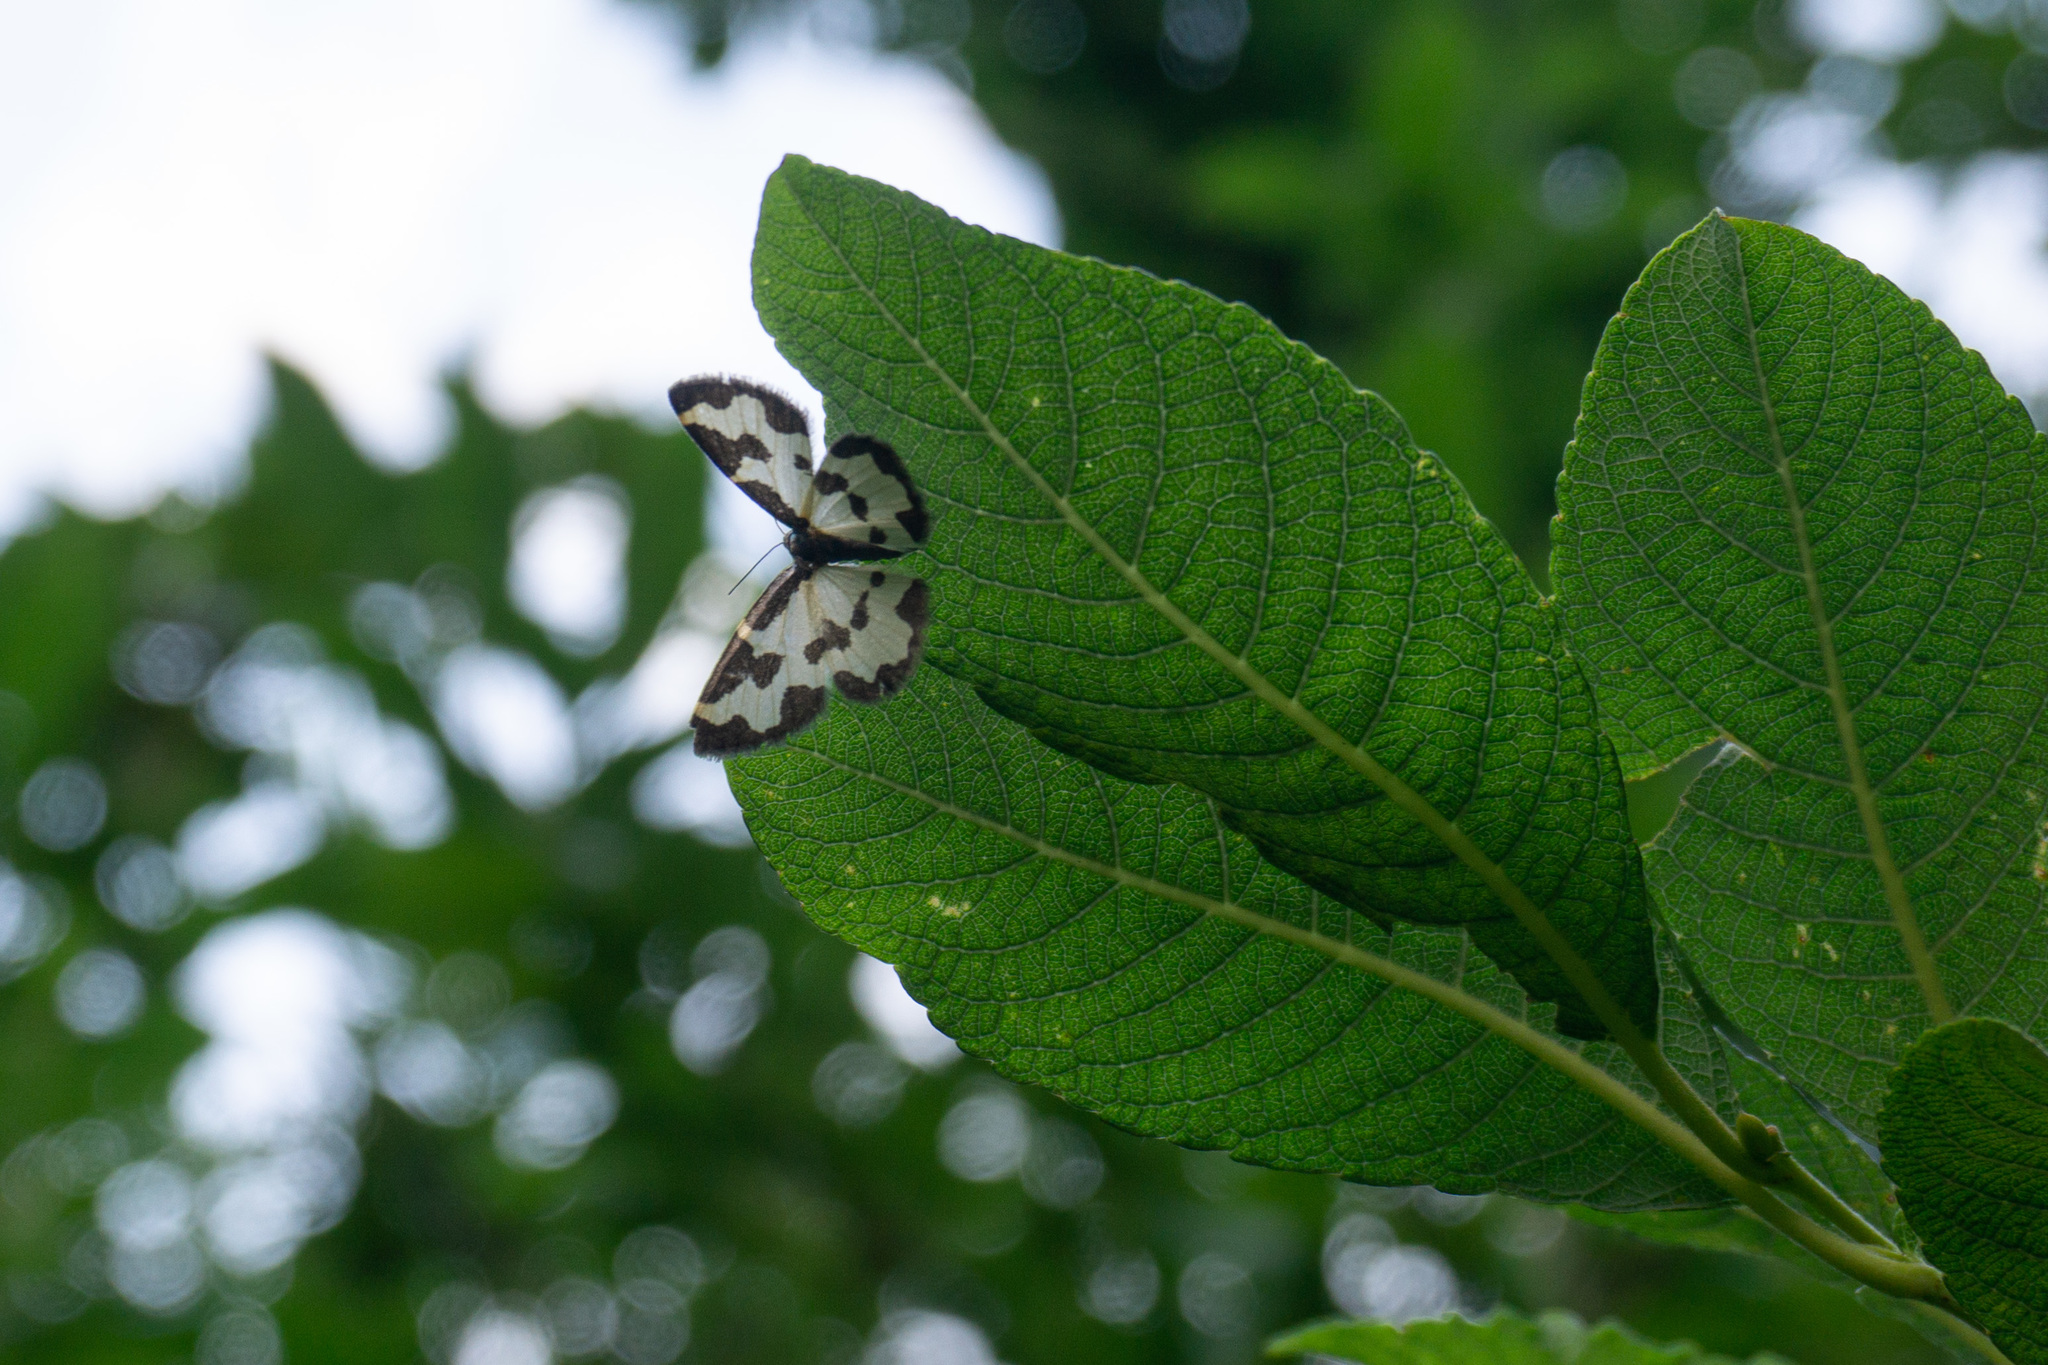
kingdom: Animalia
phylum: Arthropoda
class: Insecta
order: Lepidoptera
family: Geometridae
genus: Lomaspilis
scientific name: Lomaspilis marginata
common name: Clouded border
